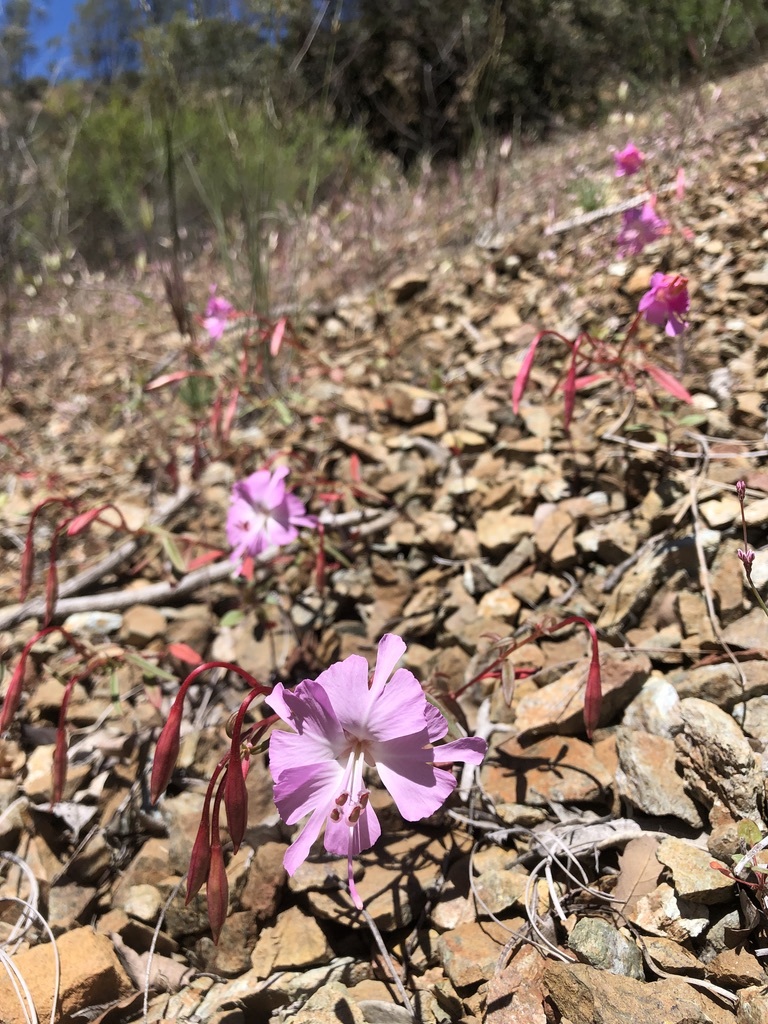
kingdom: Plantae
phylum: Tracheophyta
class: Magnoliopsida
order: Myrtales
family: Onagraceae
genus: Clarkia
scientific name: Clarkia breweri
